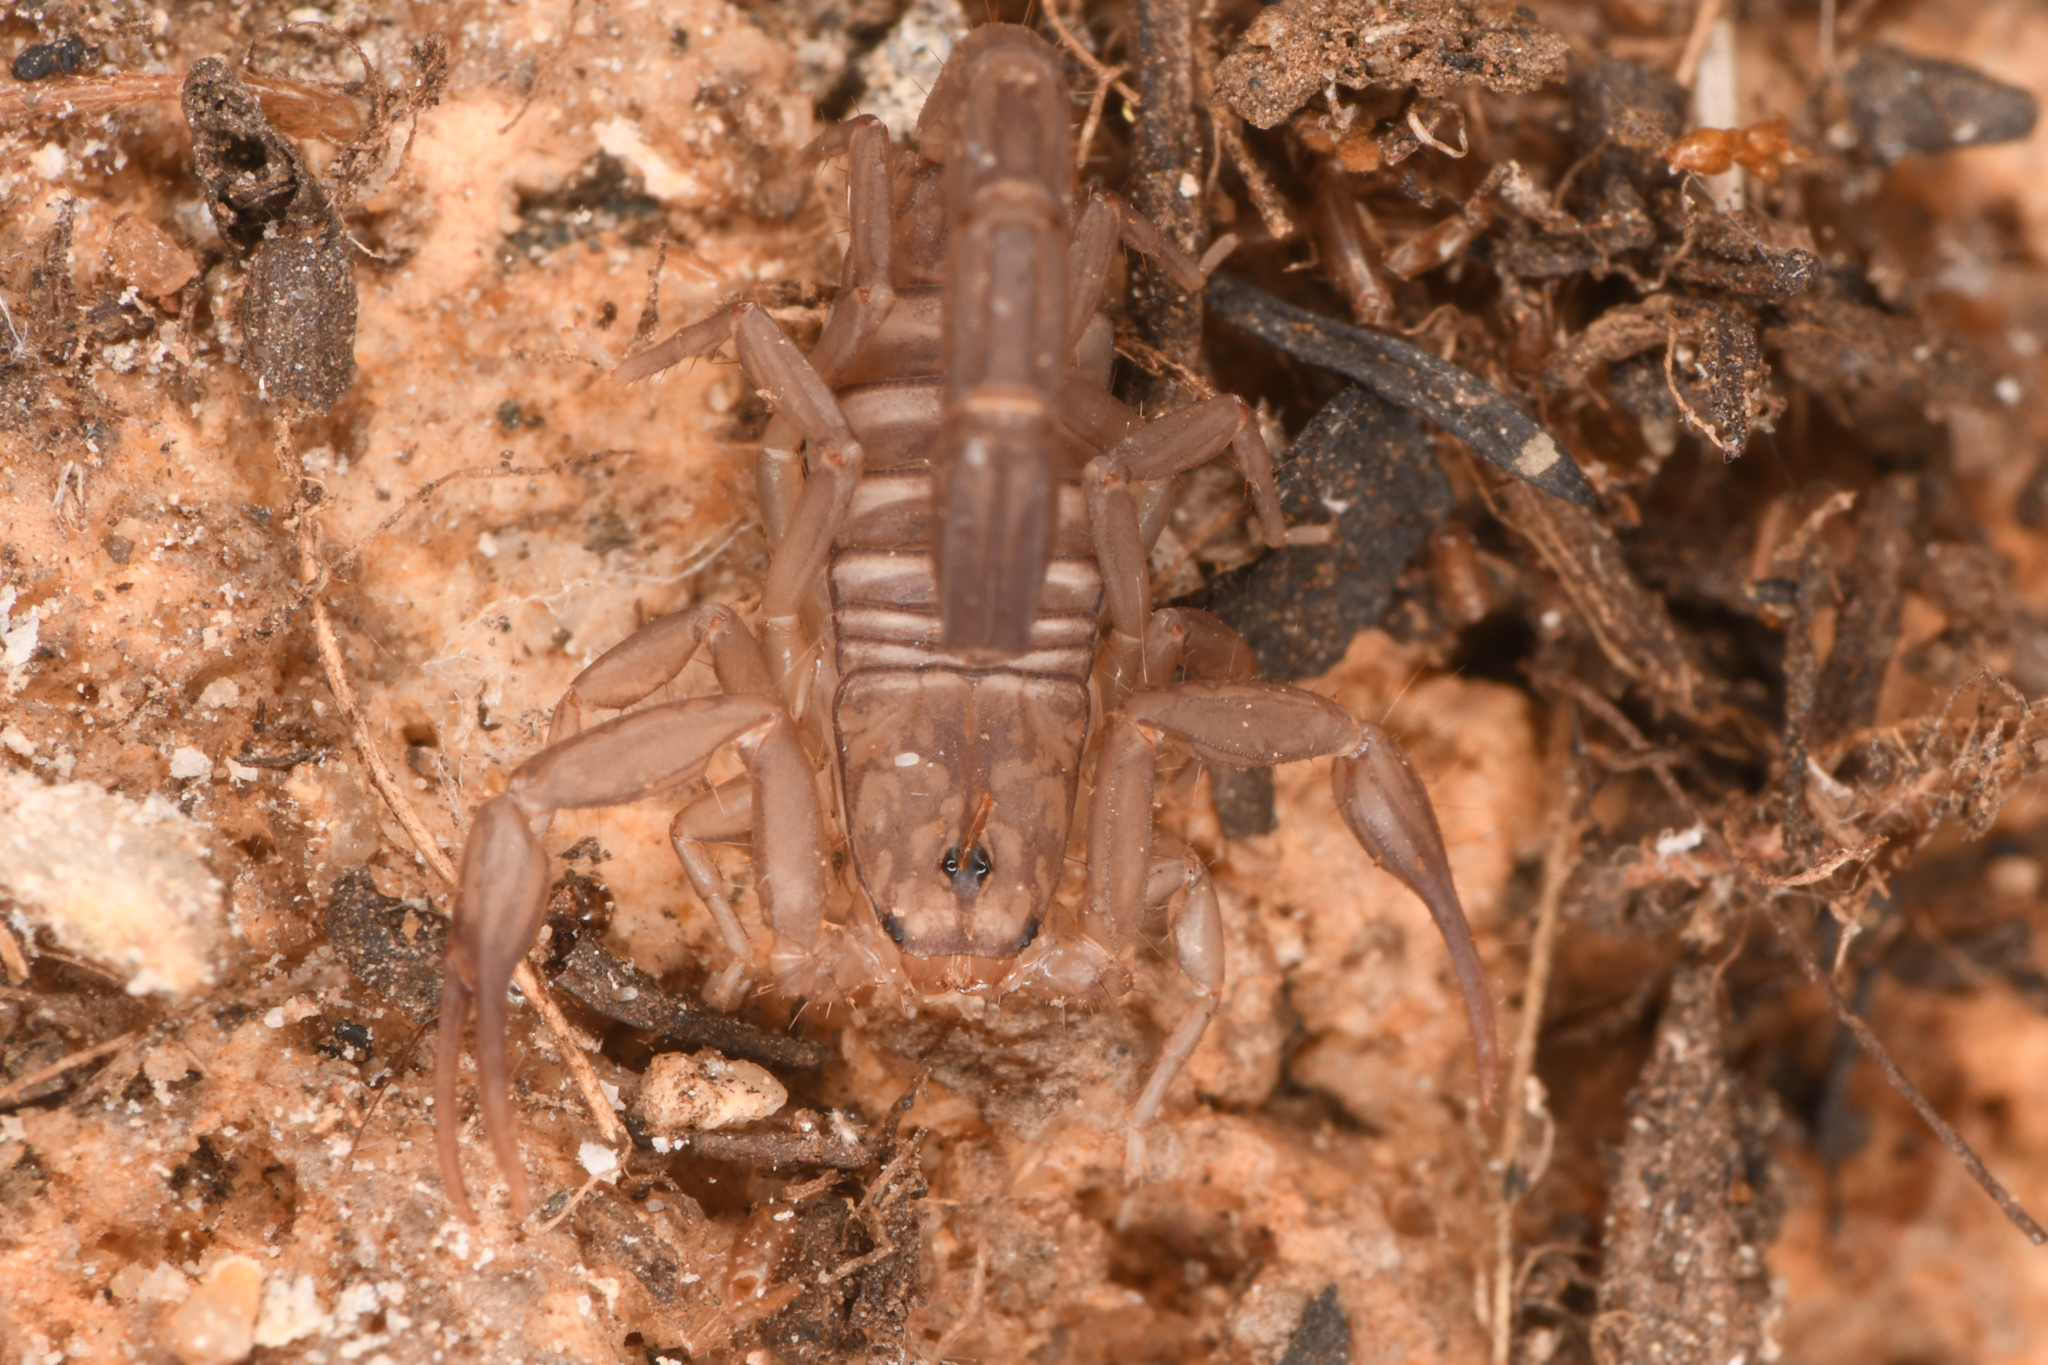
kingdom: Animalia
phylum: Arthropoda
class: Arachnida
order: Scorpiones
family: Vaejovidae
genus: Serradigitus
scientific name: Serradigitus gertschi
